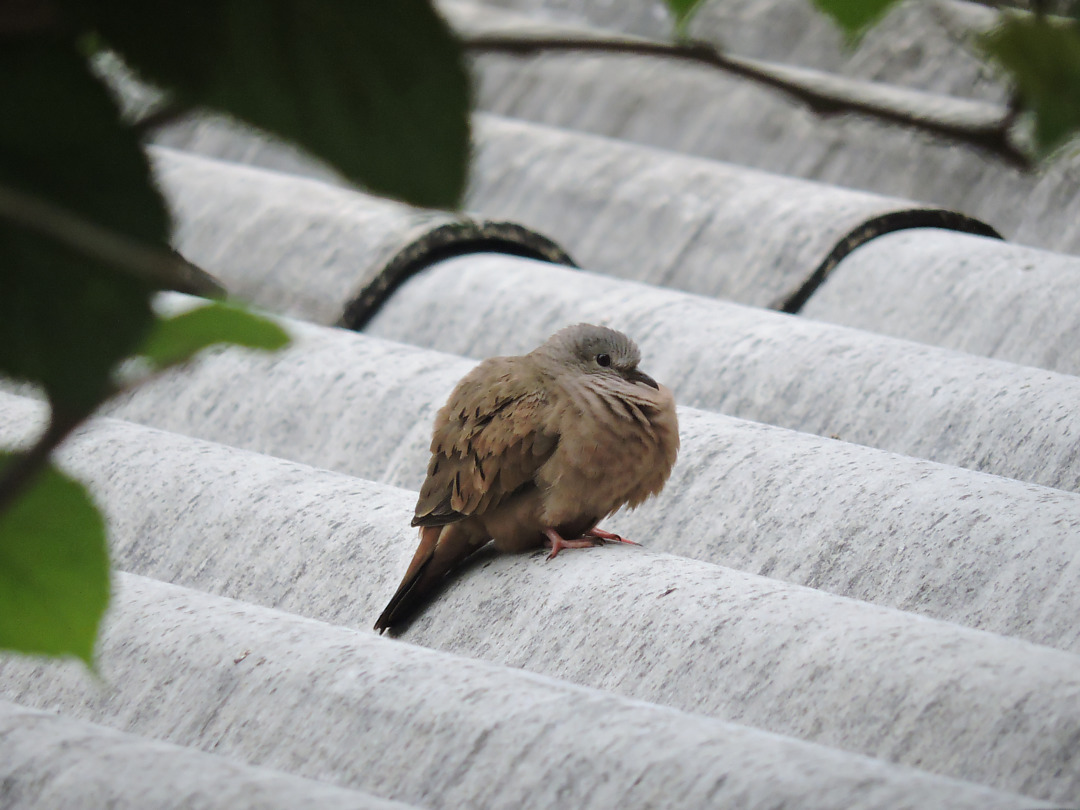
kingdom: Animalia
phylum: Chordata
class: Aves
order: Columbiformes
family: Columbidae
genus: Columbina
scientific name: Columbina talpacoti
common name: Ruddy ground dove
